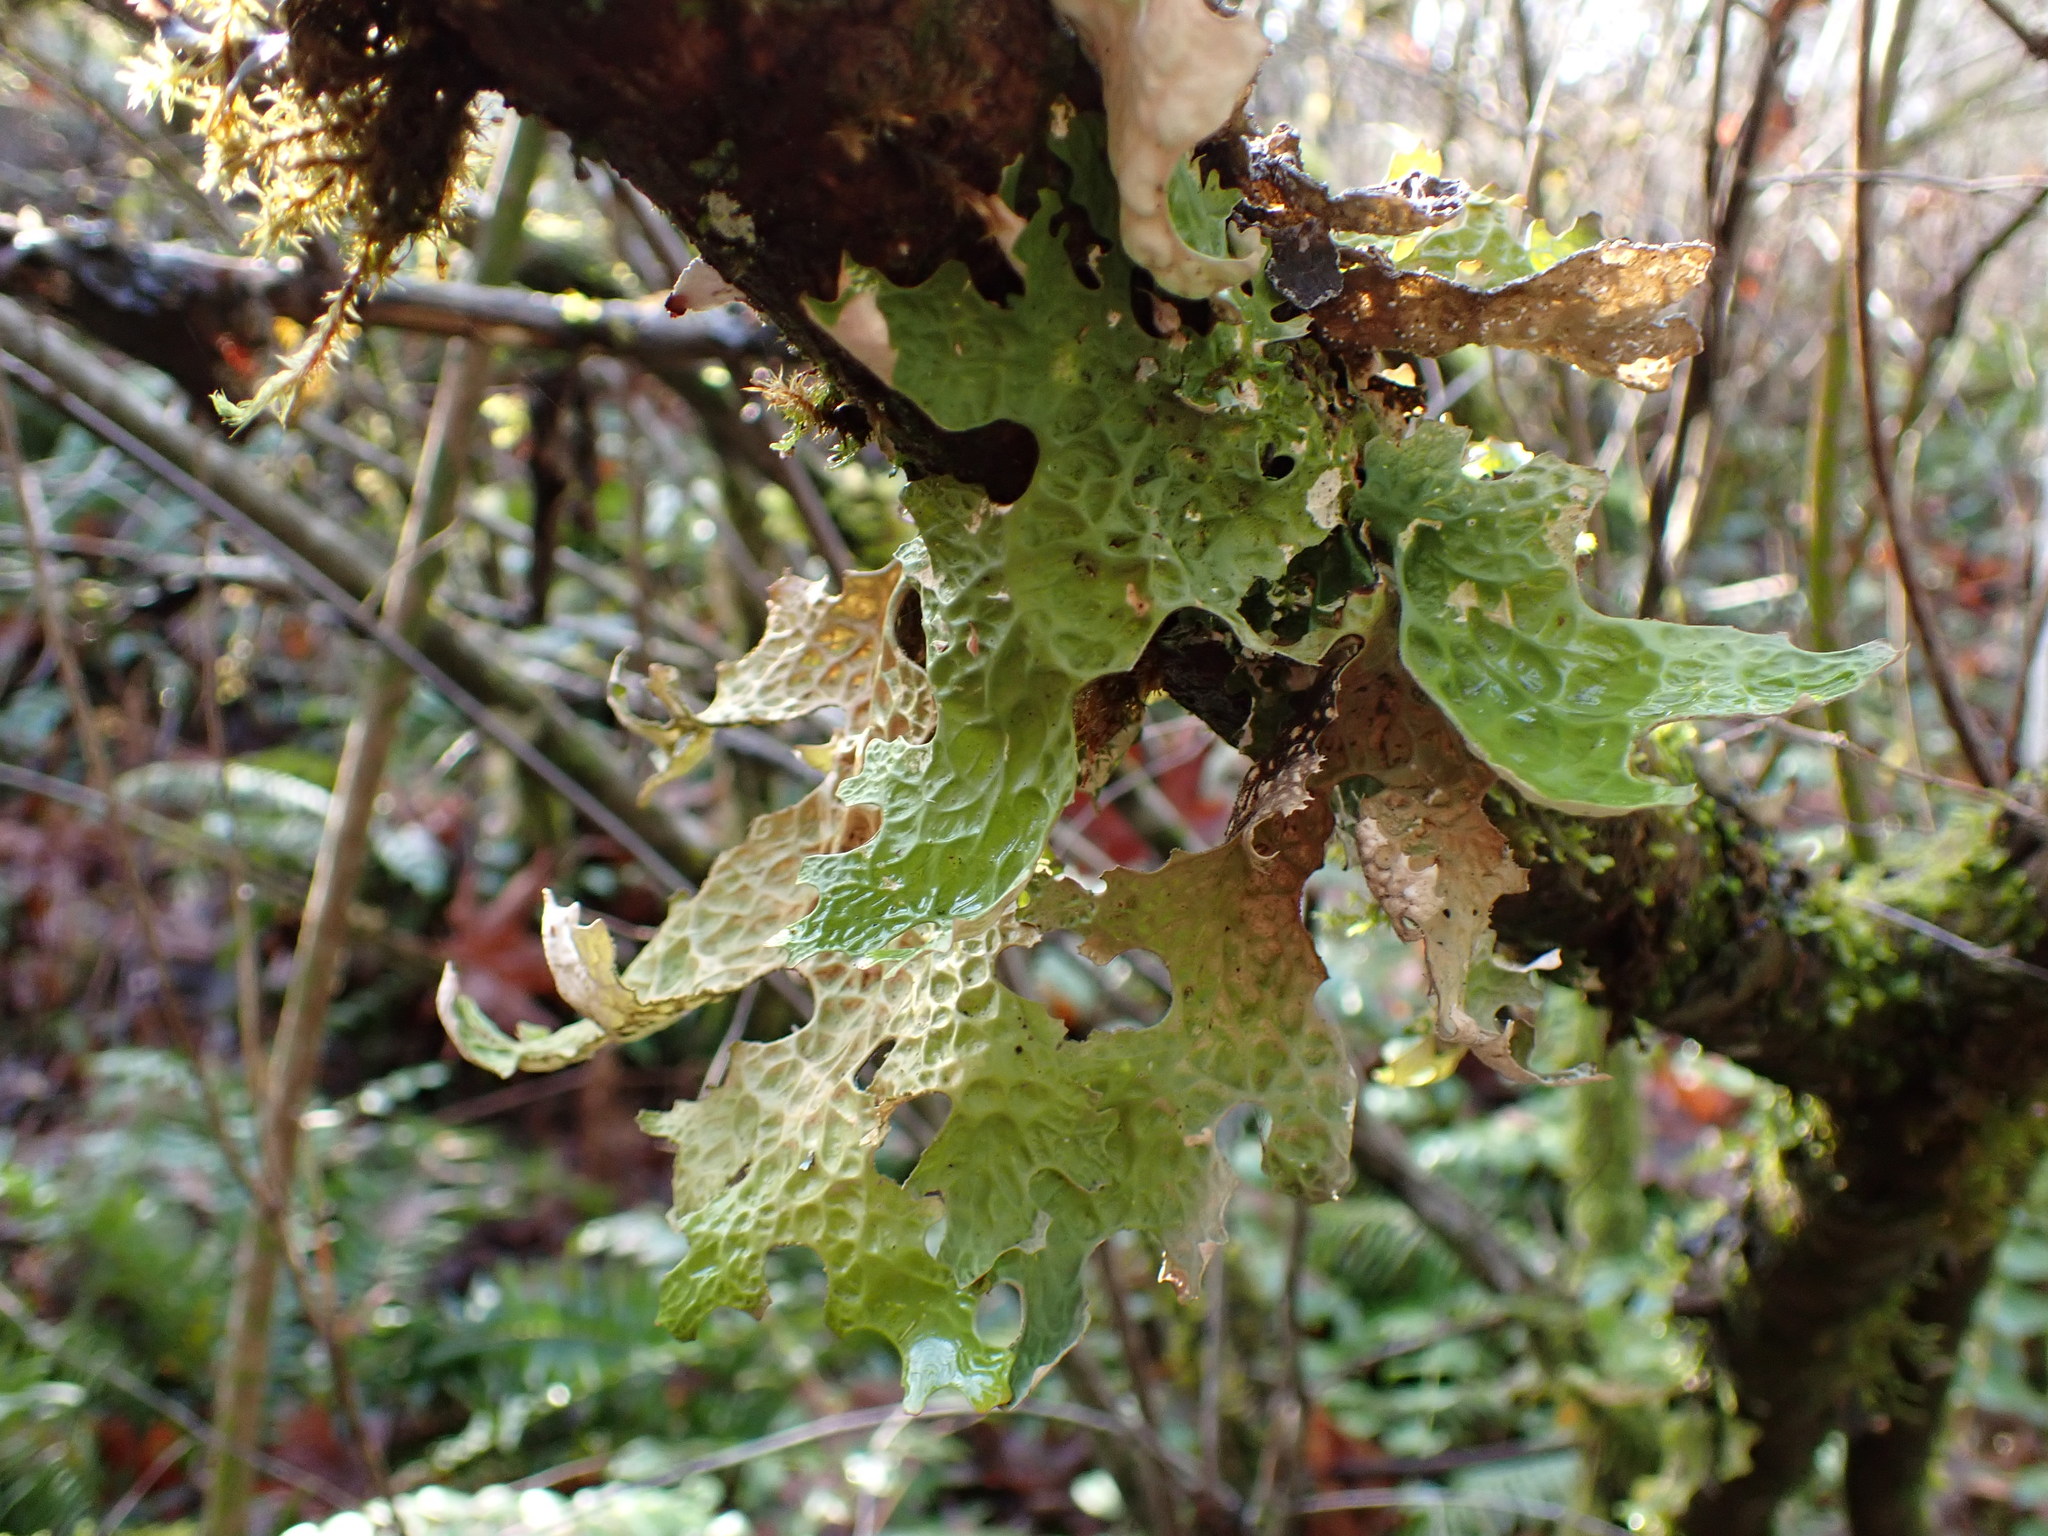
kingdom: Fungi
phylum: Ascomycota
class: Lecanoromycetes
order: Peltigerales
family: Lobariaceae
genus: Lobaria
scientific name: Lobaria pulmonaria
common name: Lungwort
